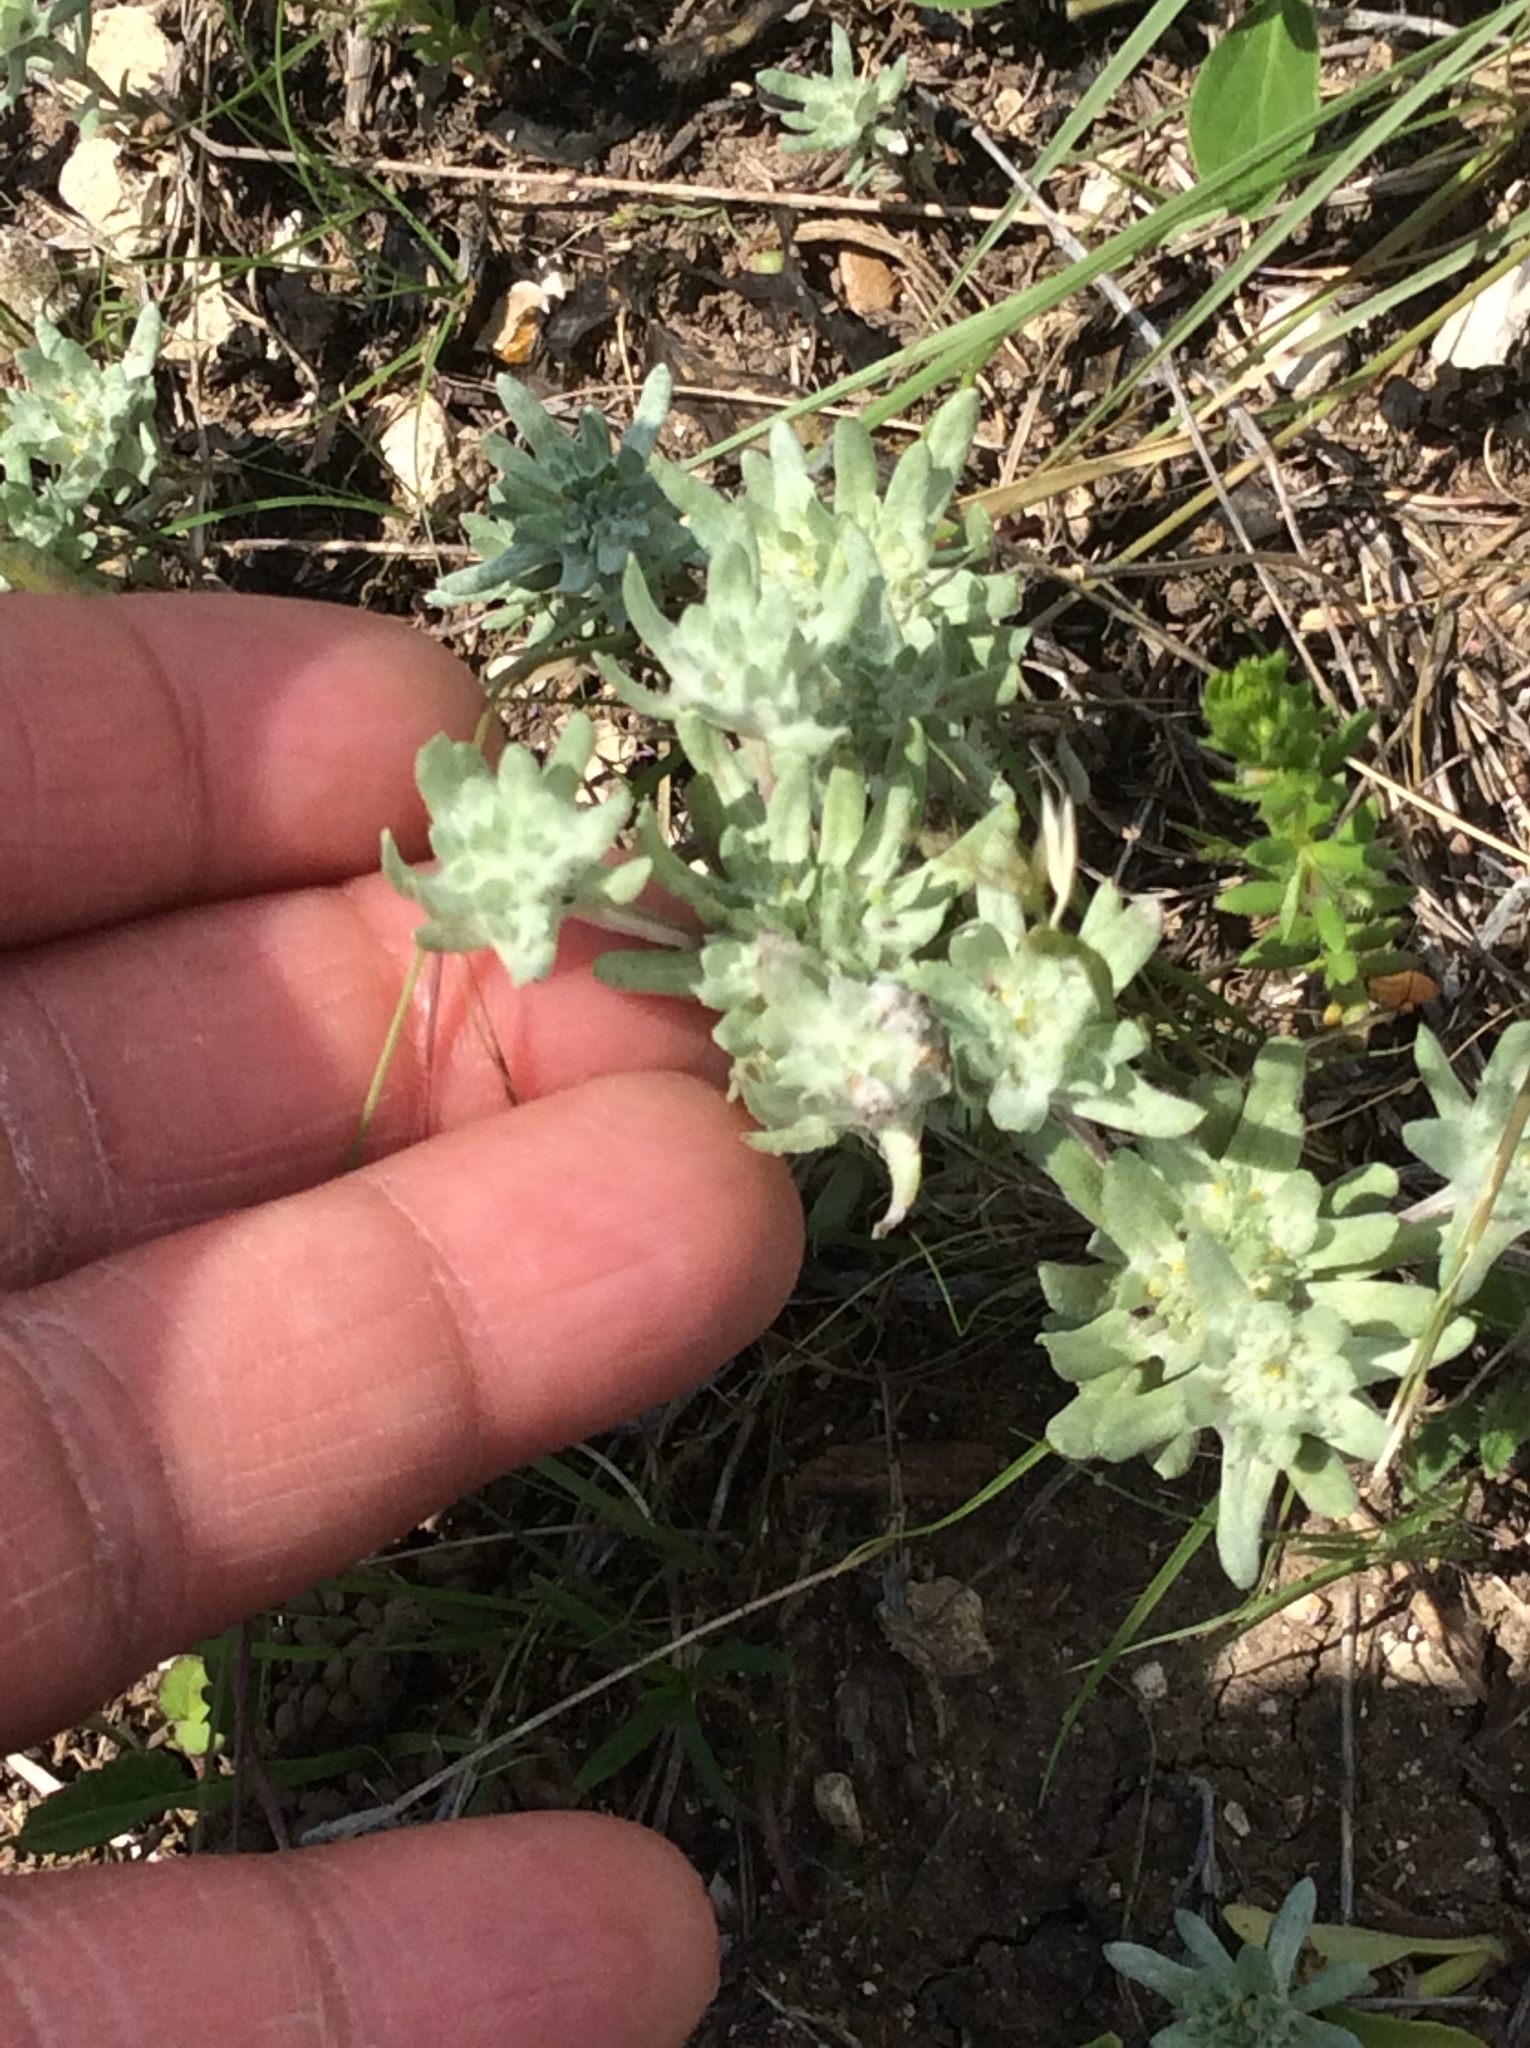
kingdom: Plantae
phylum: Tracheophyta
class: Magnoliopsida
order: Asterales
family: Asteraceae
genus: Diaperia
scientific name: Diaperia prolifera
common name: Big-head rabbit-tobacco
